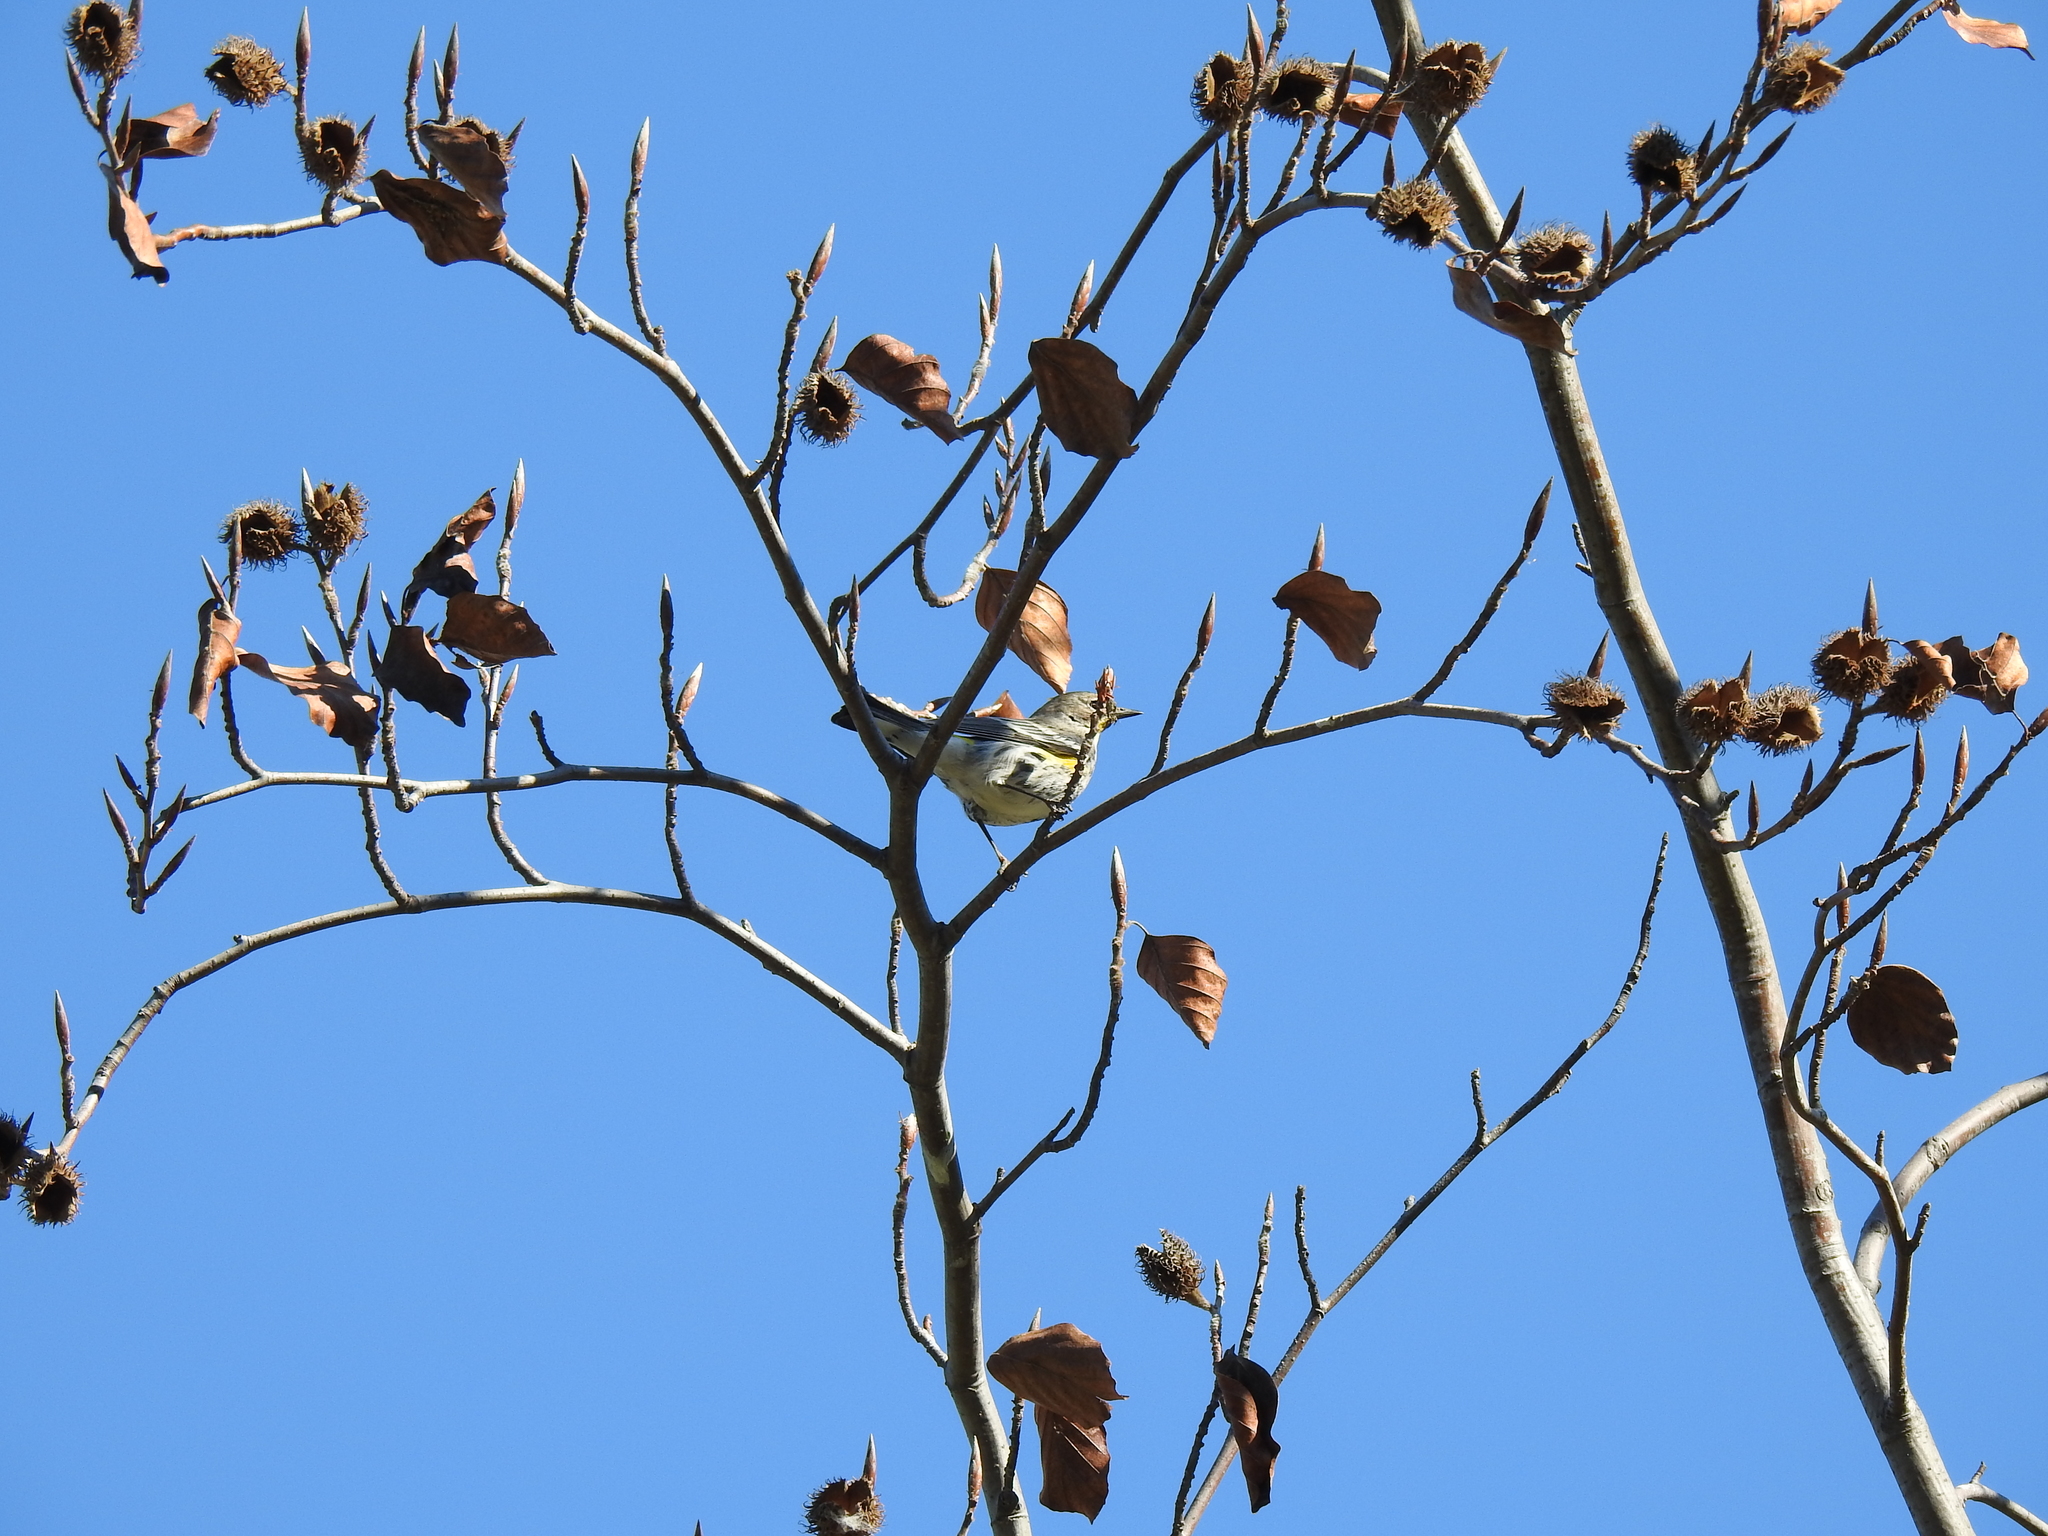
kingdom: Animalia
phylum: Chordata
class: Aves
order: Passeriformes
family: Parulidae
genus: Setophaga
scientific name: Setophaga coronata
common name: Myrtle warbler
